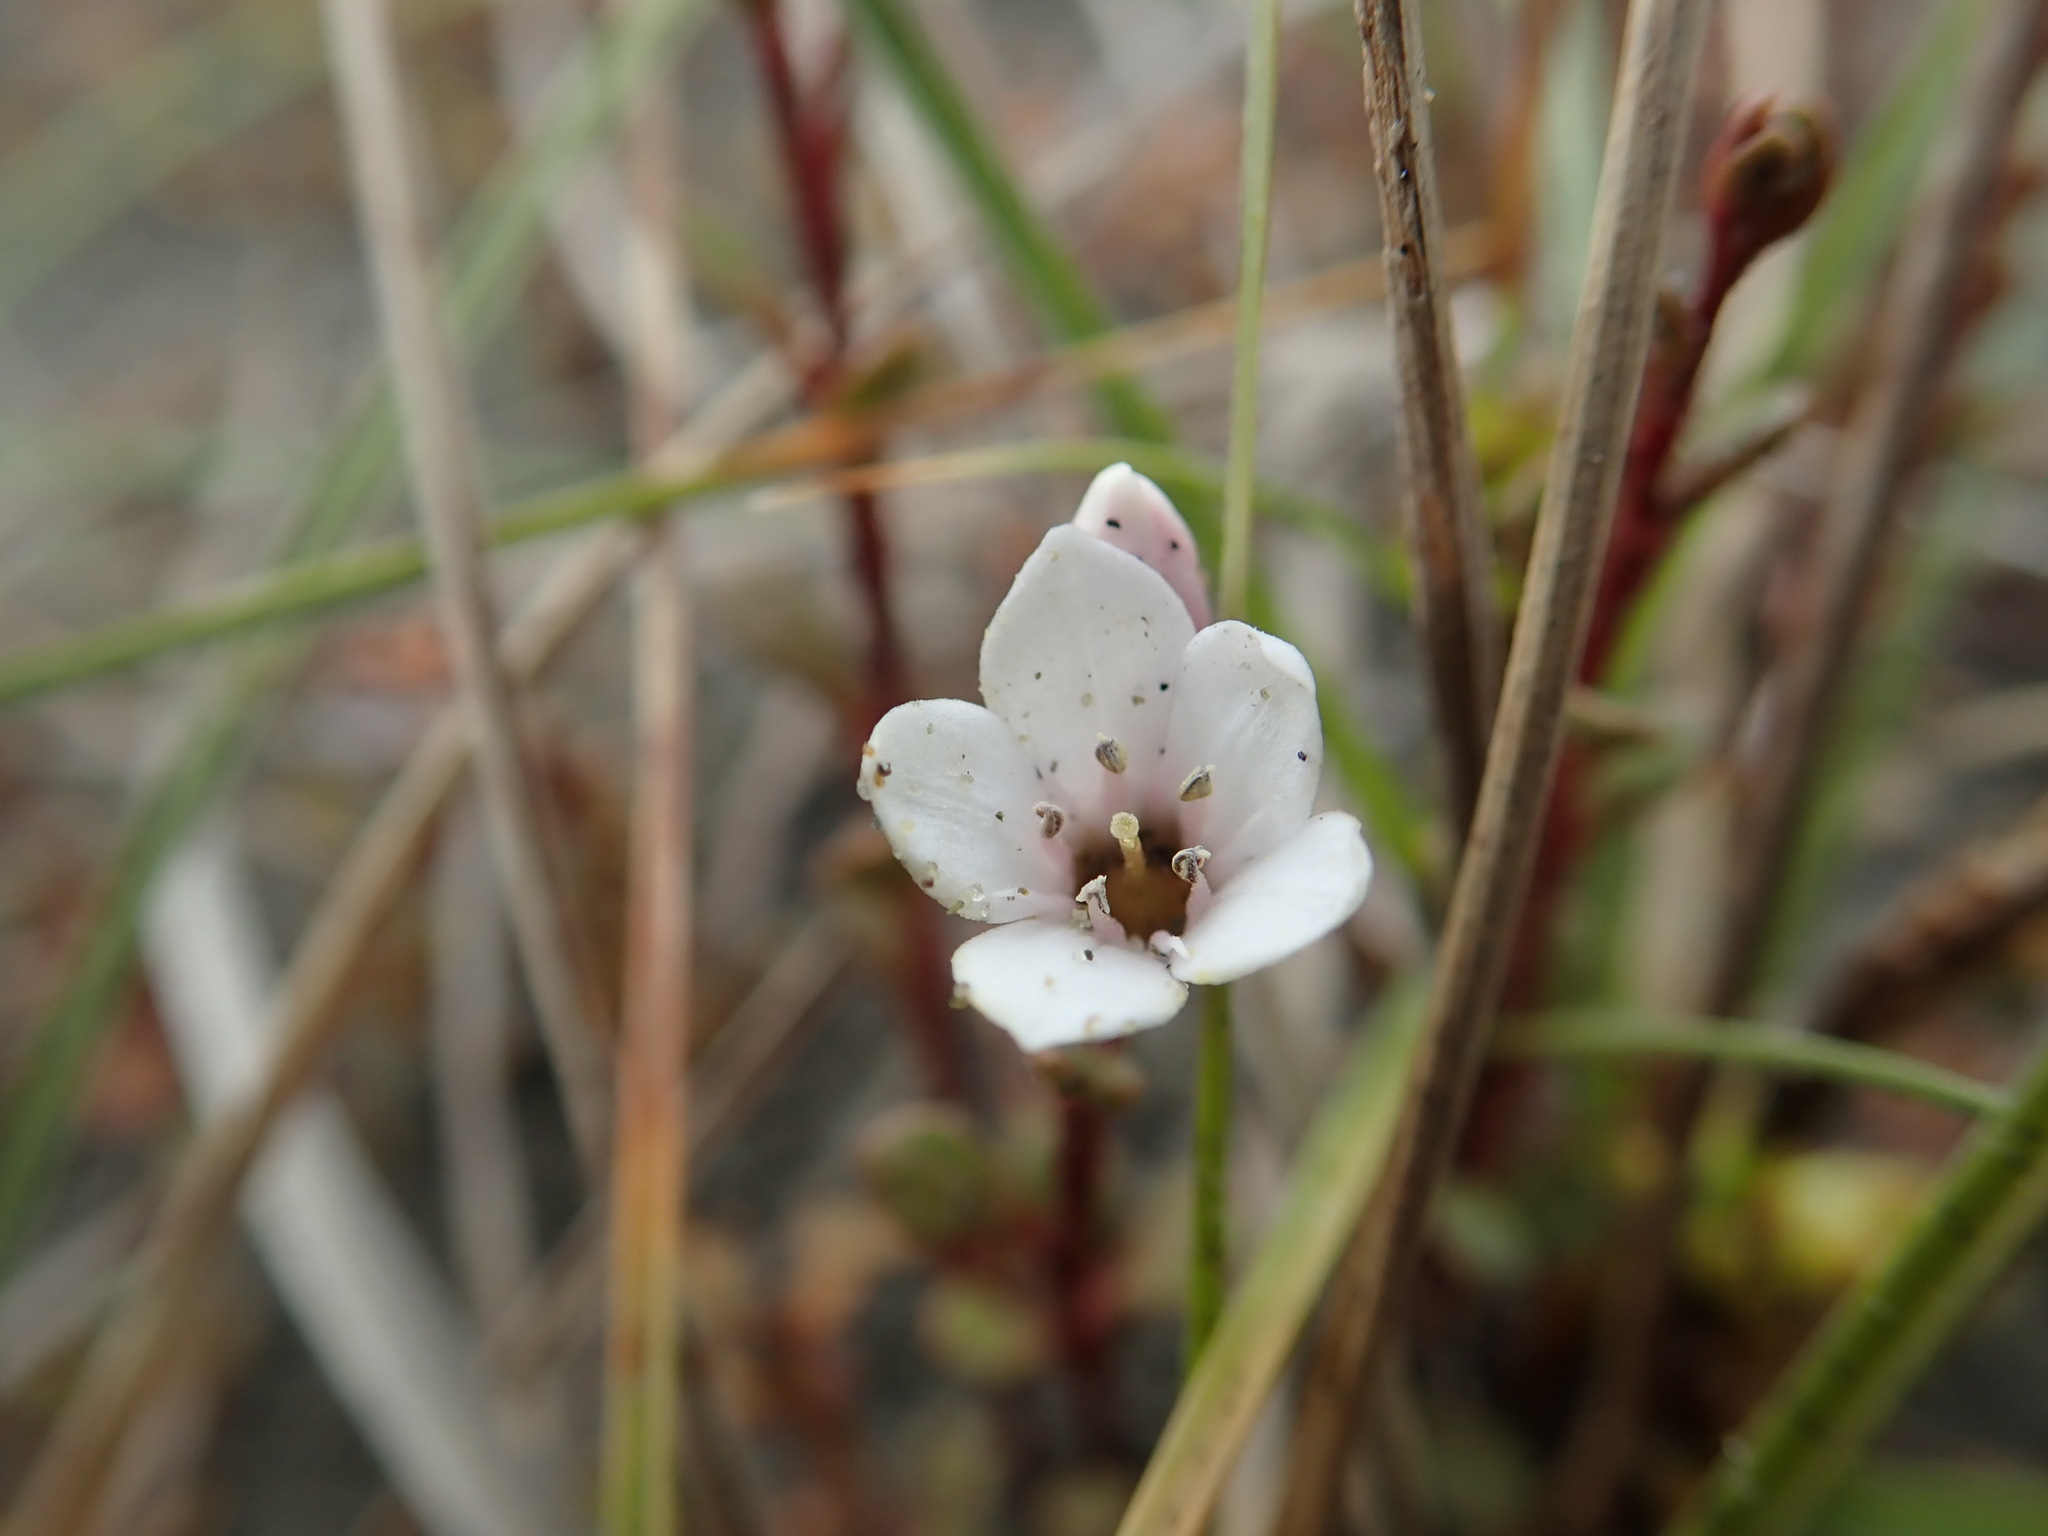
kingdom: Plantae
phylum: Tracheophyta
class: Magnoliopsida
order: Ericales
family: Primulaceae
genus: Samolus
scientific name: Samolus repens
